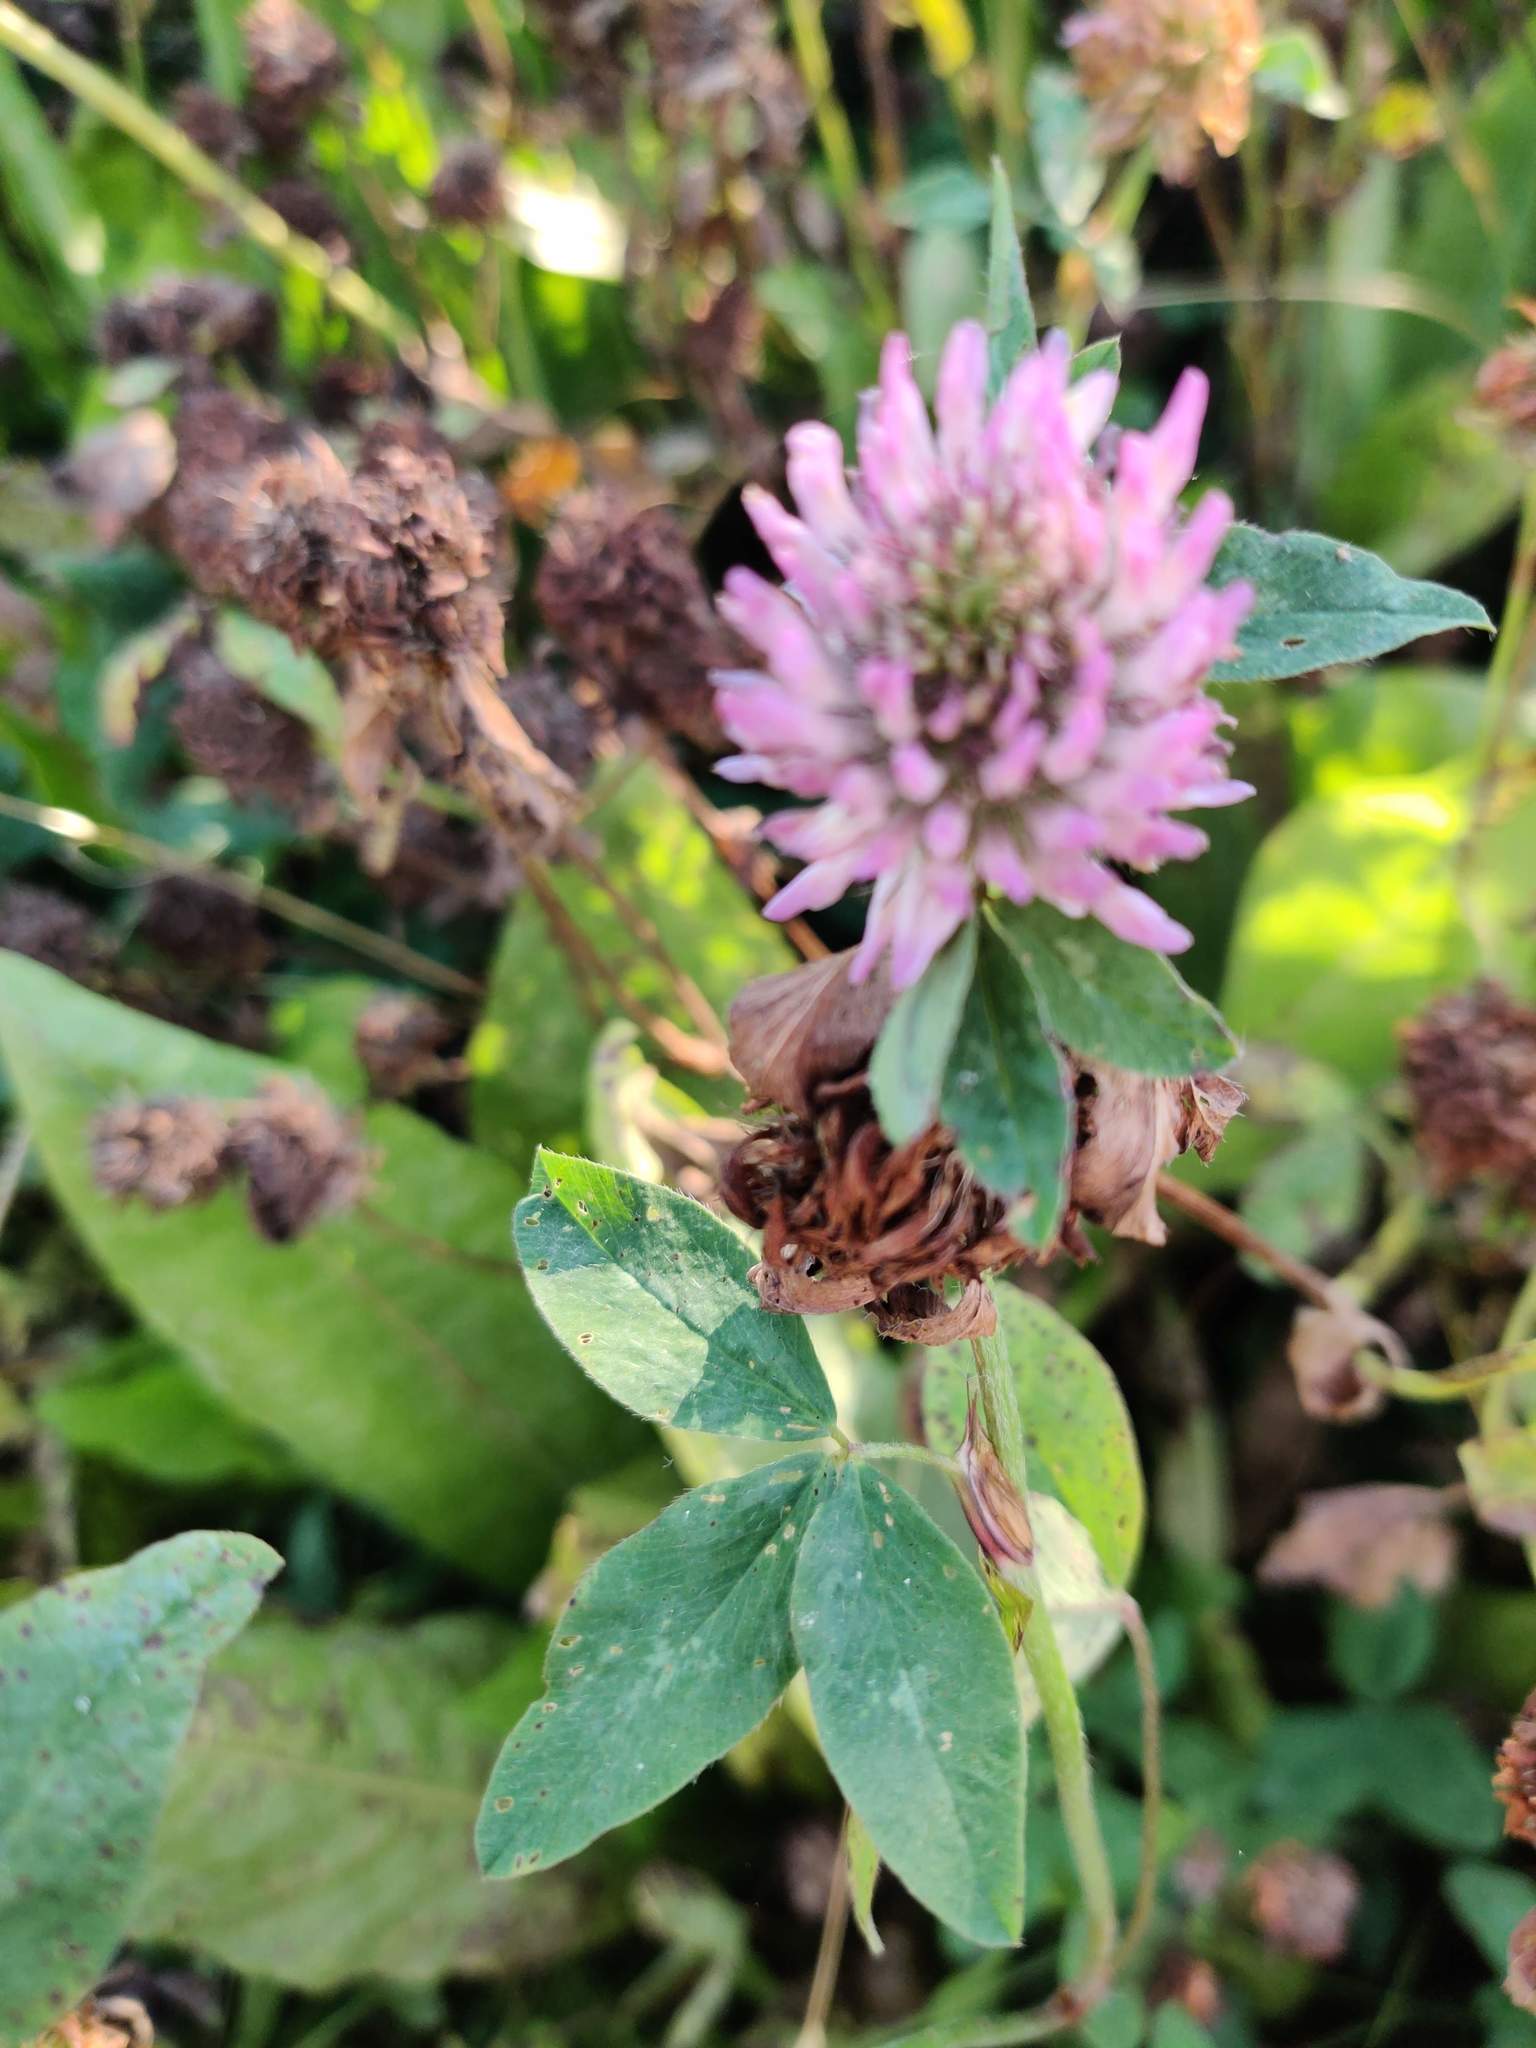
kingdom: Plantae
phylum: Tracheophyta
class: Magnoliopsida
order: Fabales
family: Fabaceae
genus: Trifolium
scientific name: Trifolium pratense
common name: Red clover
